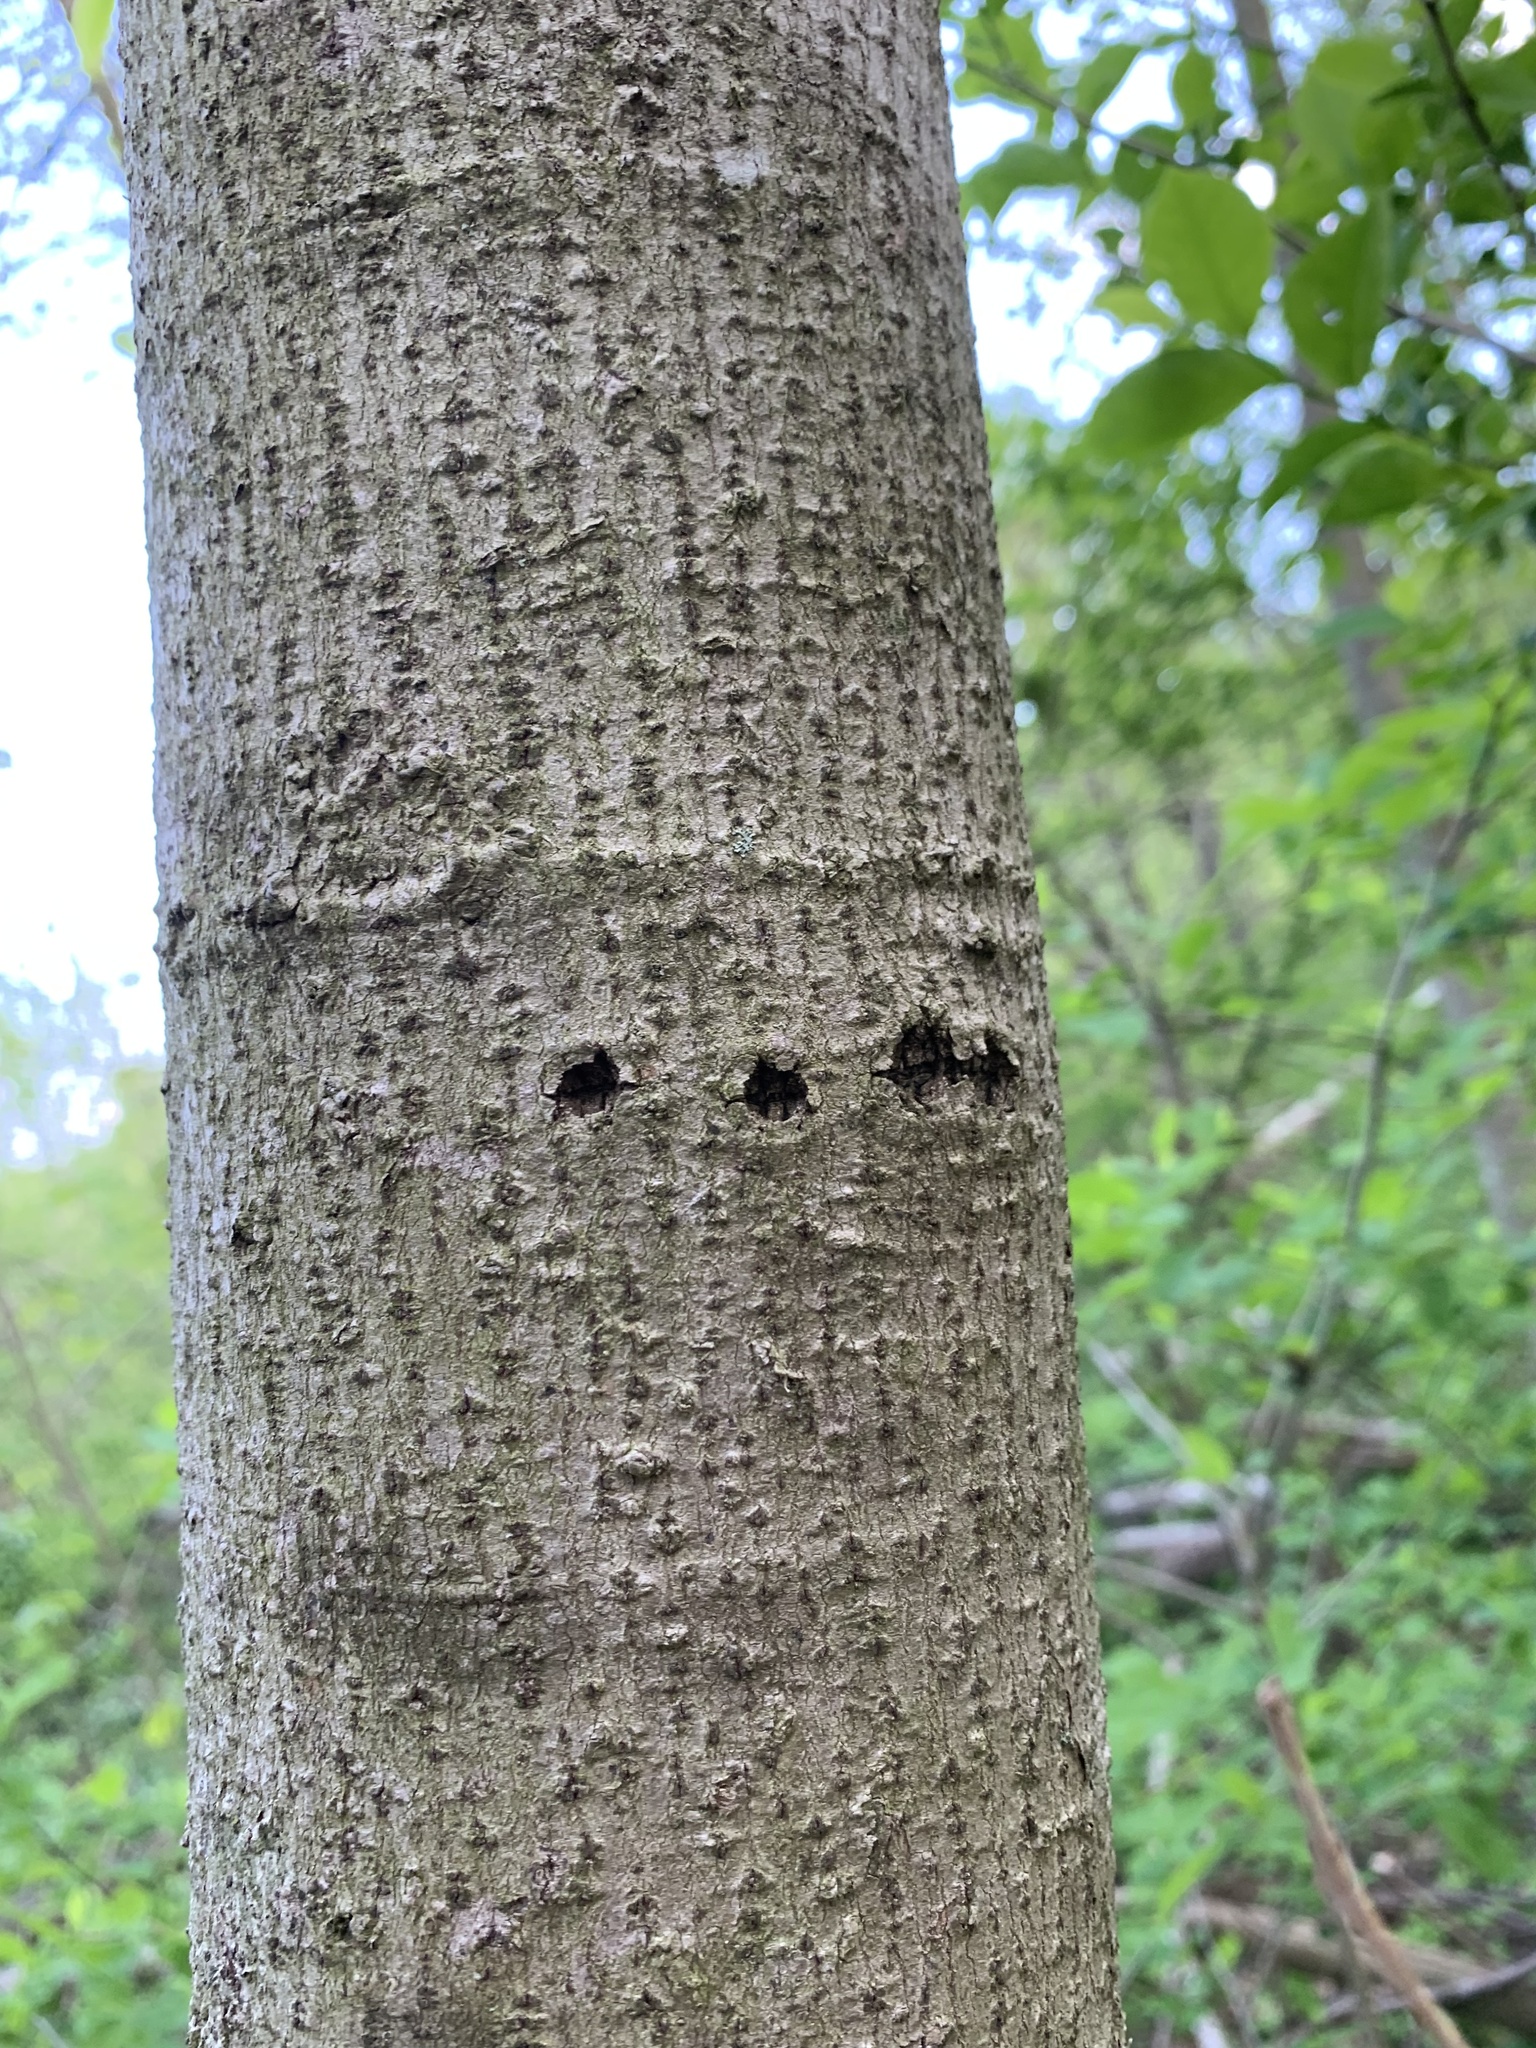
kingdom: Animalia
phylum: Chordata
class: Aves
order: Piciformes
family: Picidae
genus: Sphyrapicus
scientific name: Sphyrapicus varius
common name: Yellow-bellied sapsucker
